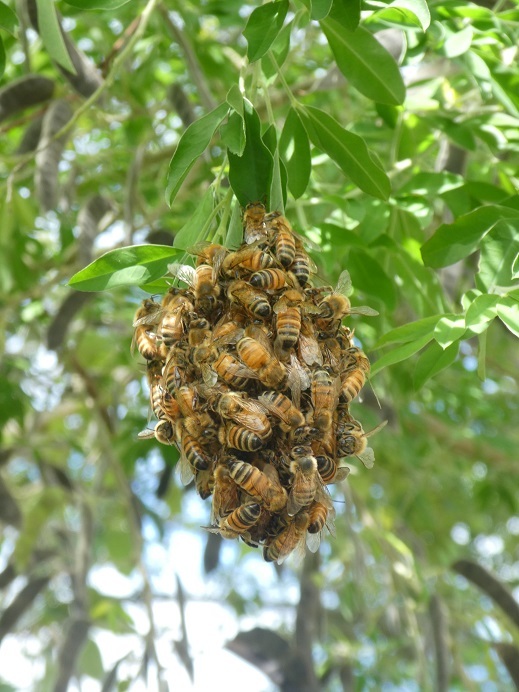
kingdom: Animalia
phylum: Arthropoda
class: Insecta
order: Hymenoptera
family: Apidae
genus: Apis
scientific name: Apis mellifera
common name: Honey bee
